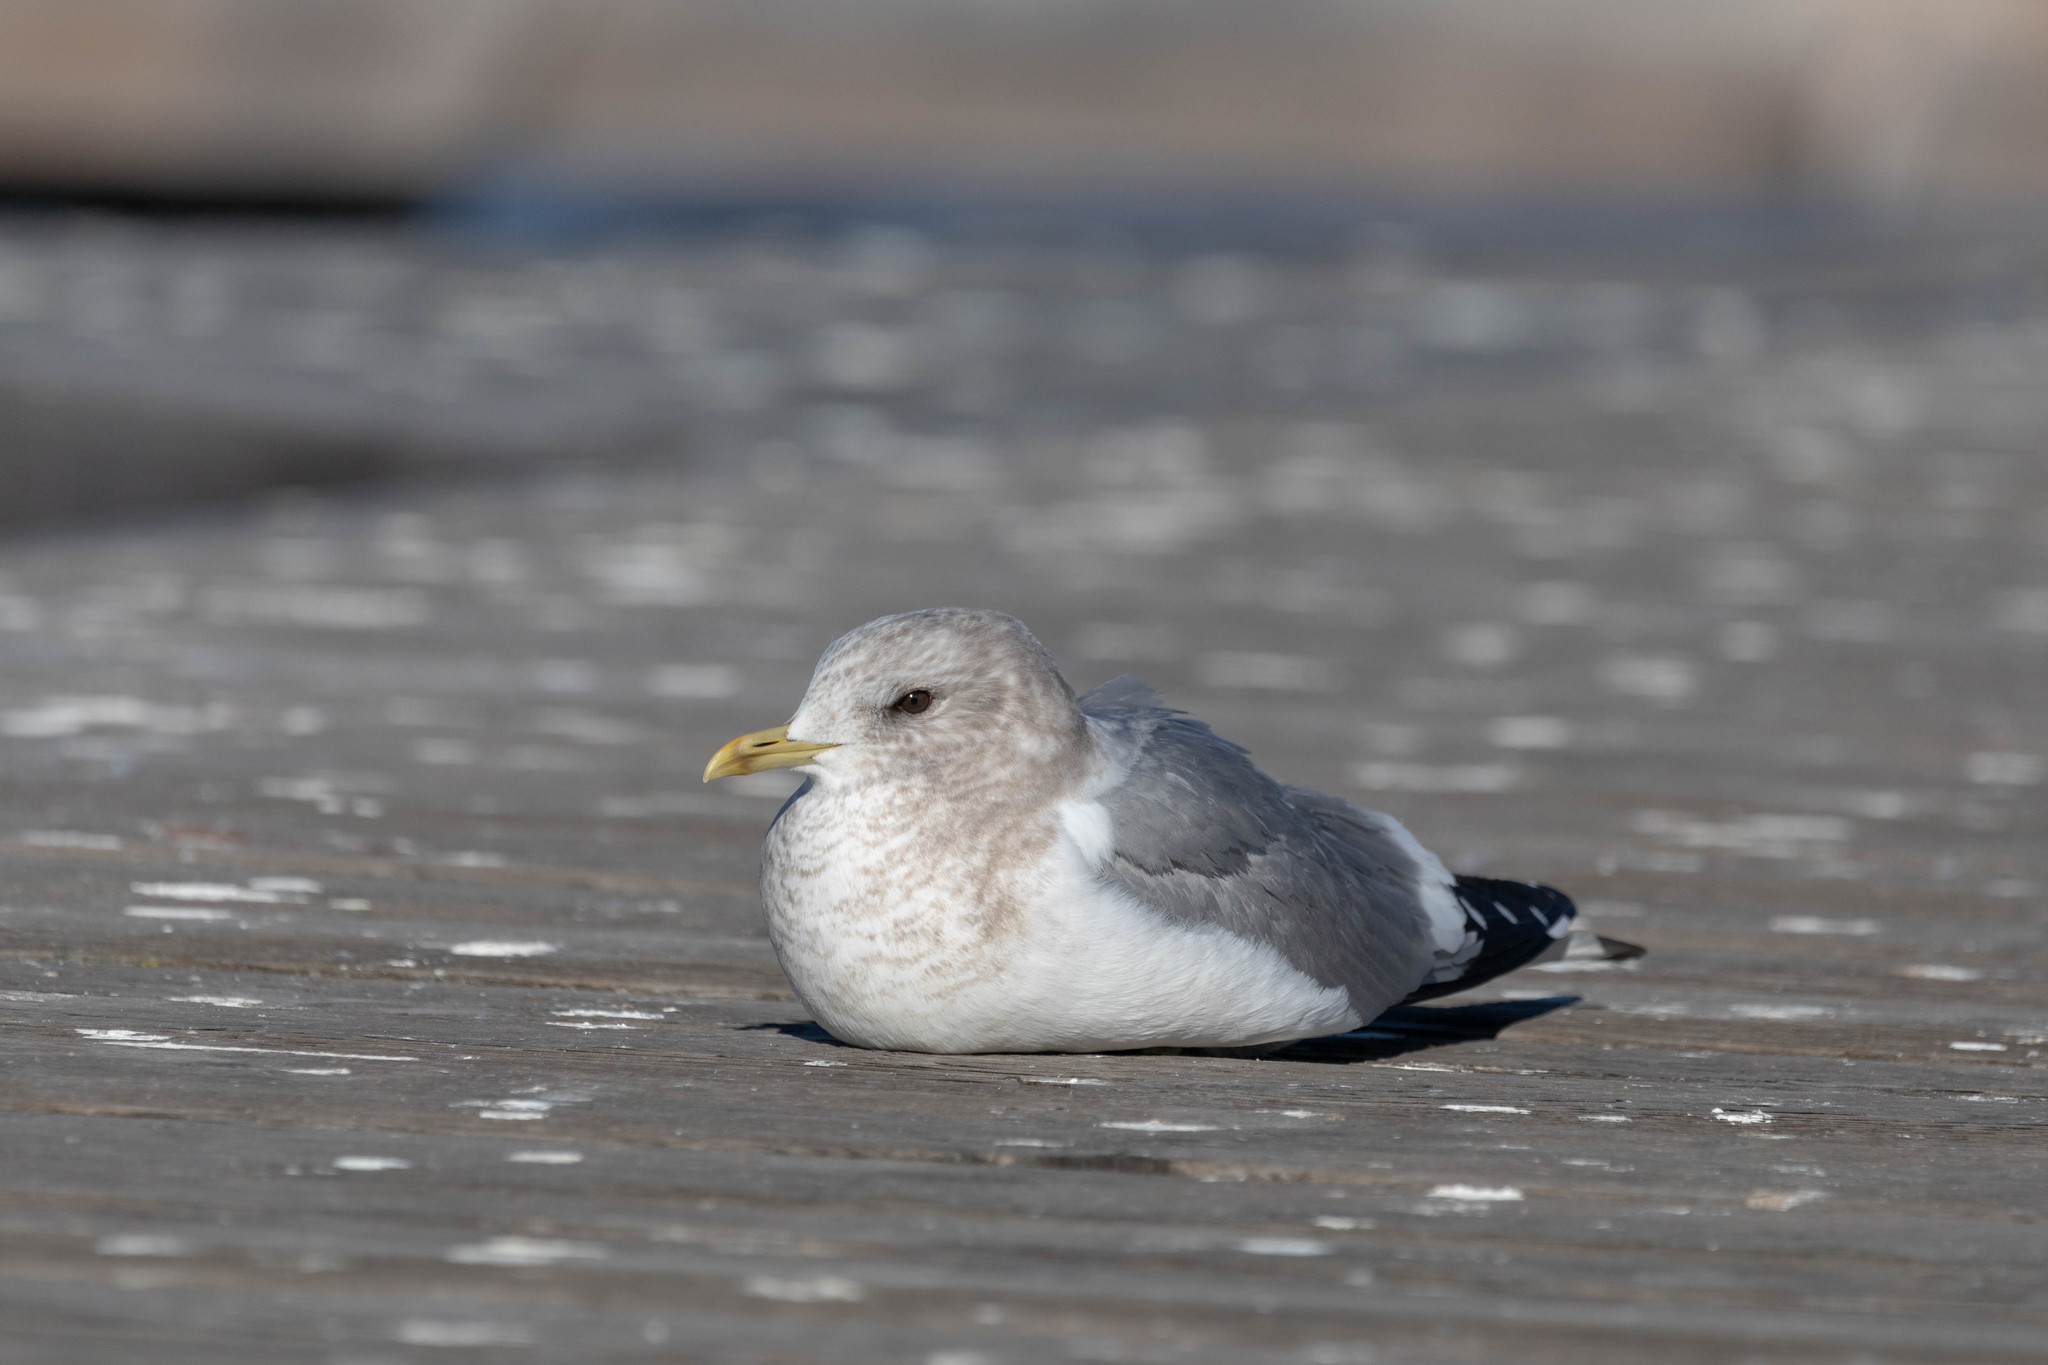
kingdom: Animalia
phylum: Chordata
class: Aves
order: Charadriiformes
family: Laridae
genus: Larus
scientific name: Larus brachyrhynchus
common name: Short-billed gull
